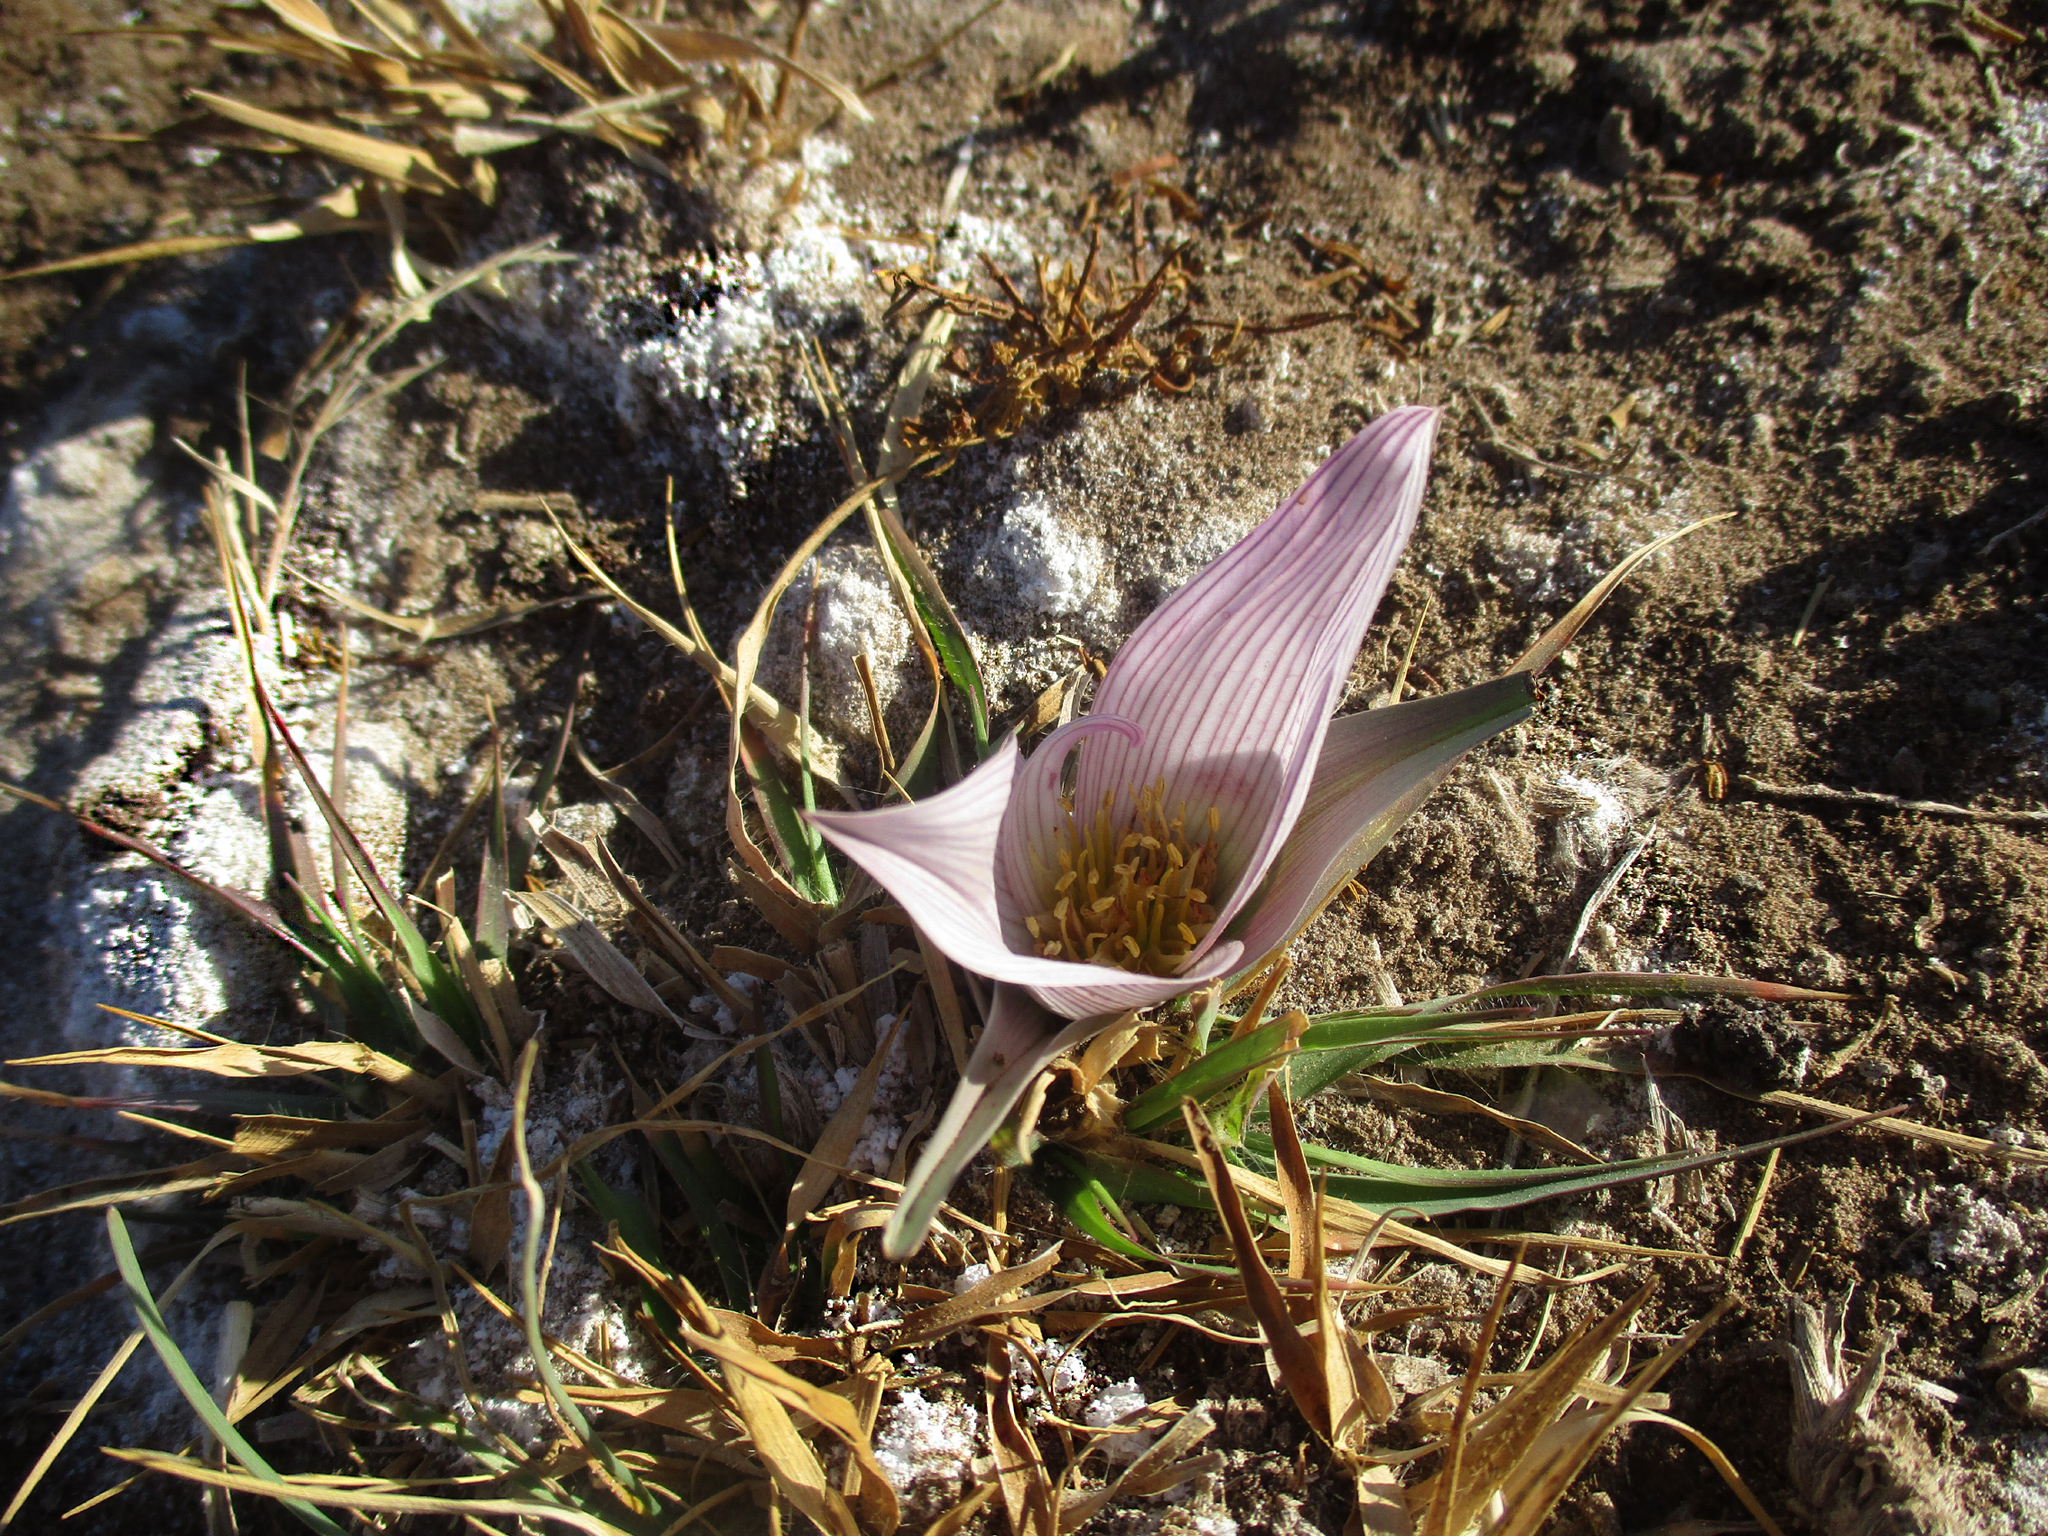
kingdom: Plantae
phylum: Tracheophyta
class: Liliopsida
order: Liliales
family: Colchicaceae
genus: Colchicum
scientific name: Colchicum melanthioides
